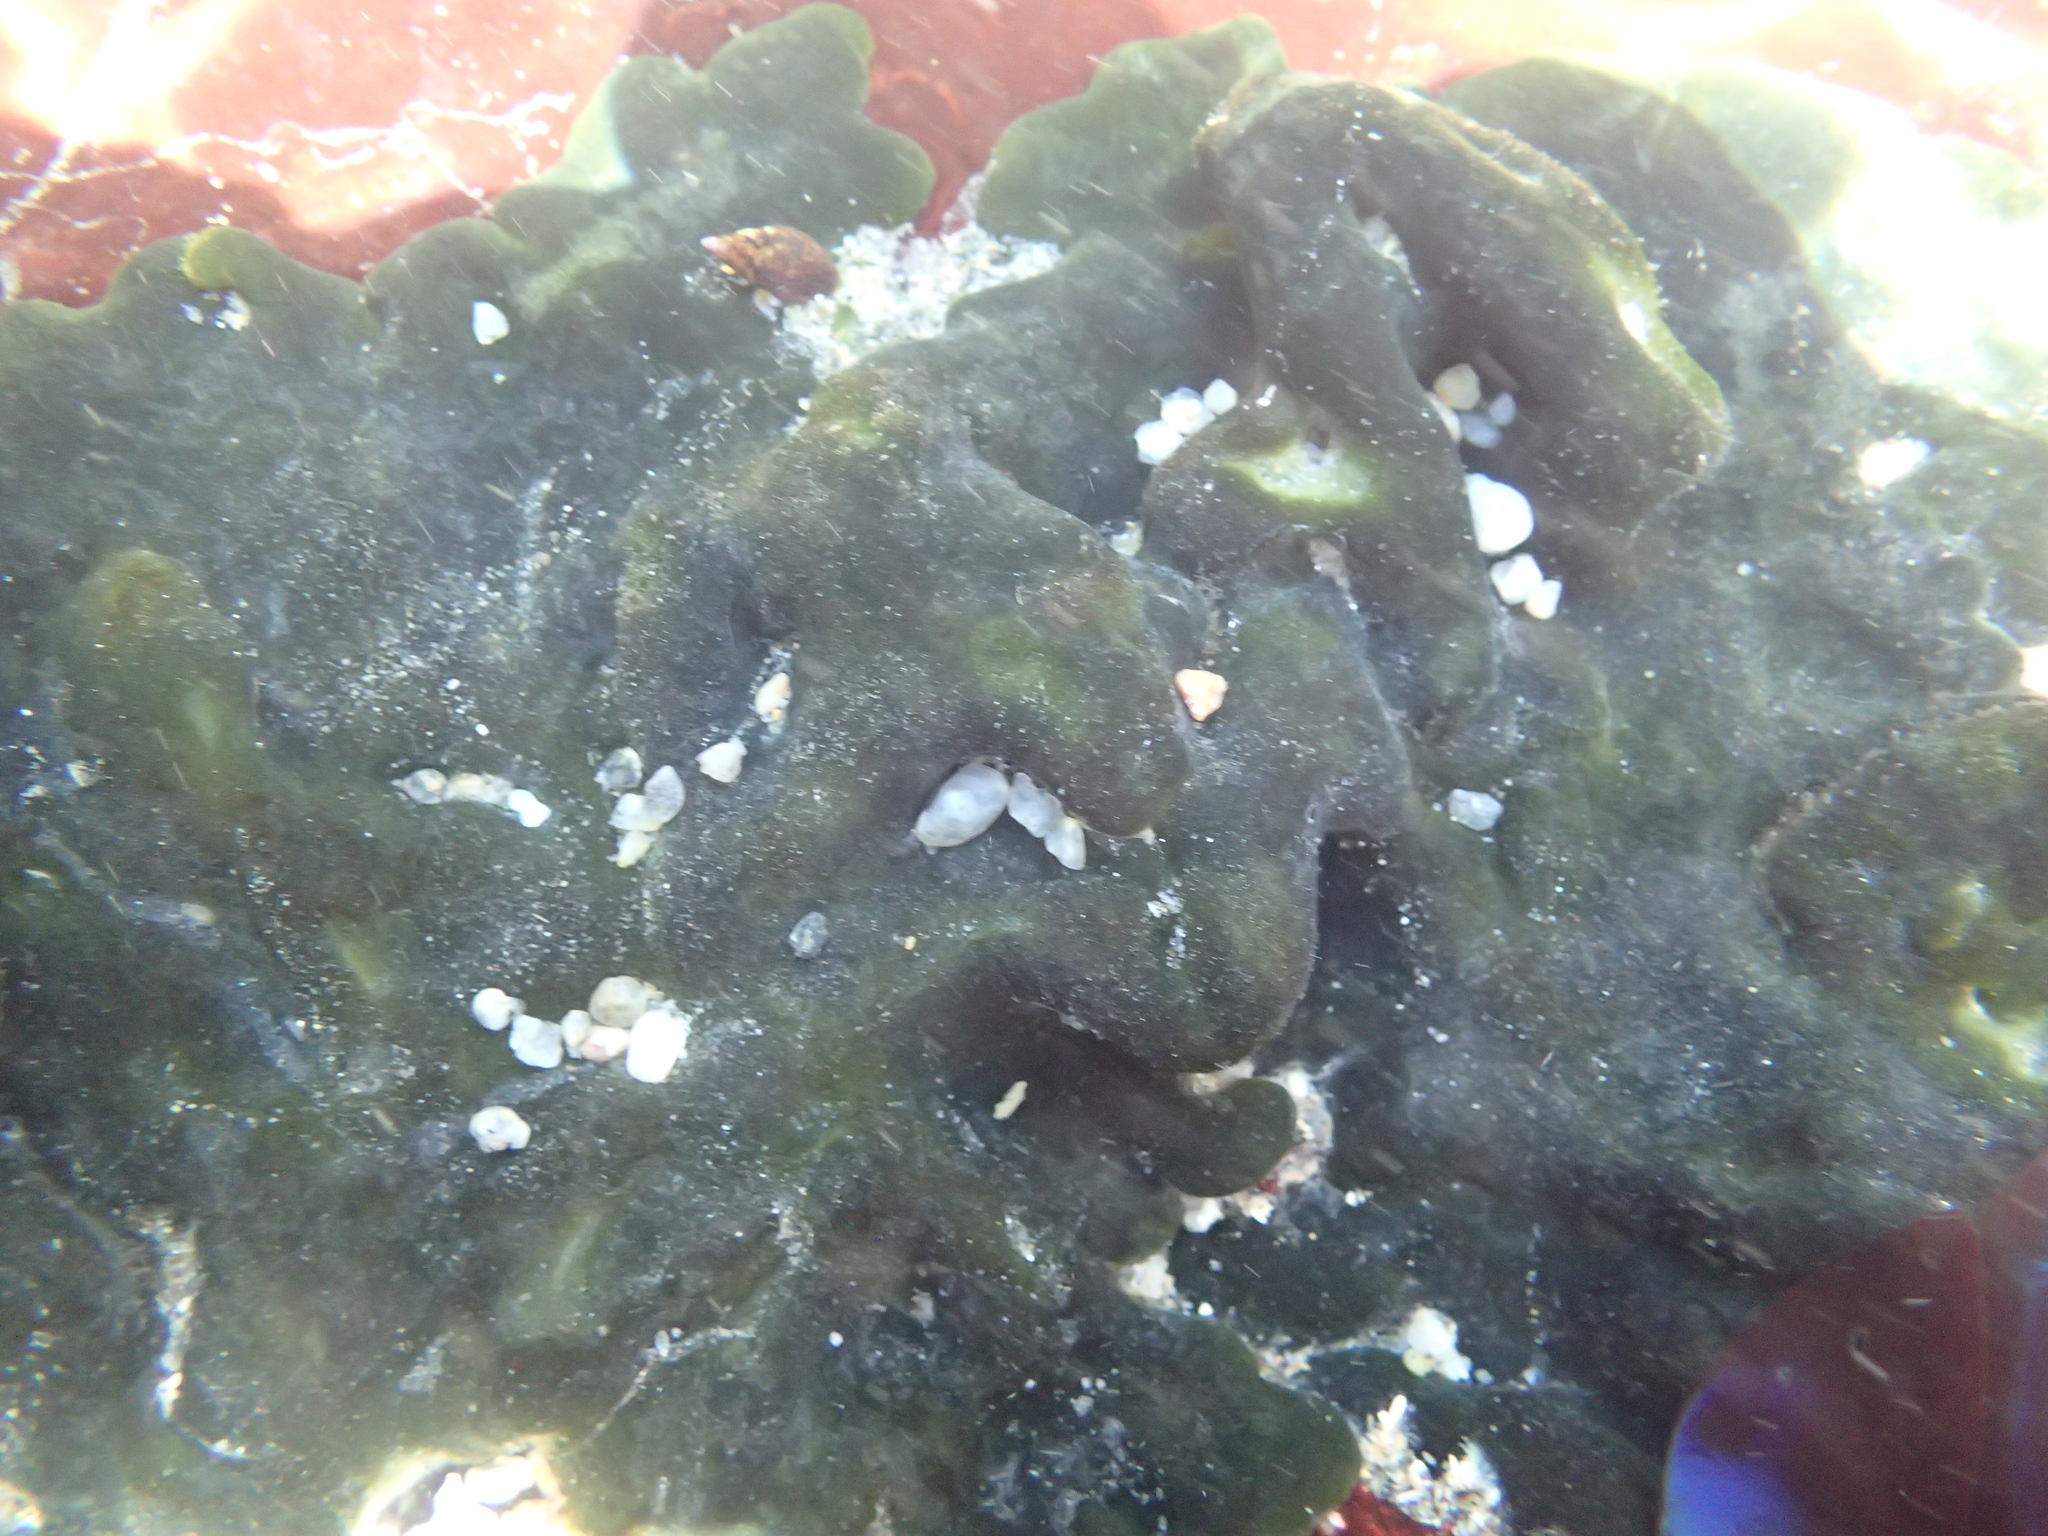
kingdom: Plantae
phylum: Chlorophyta
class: Ulvophyceae
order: Bryopsidales
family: Codiaceae
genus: Codium
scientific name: Codium setchellii
